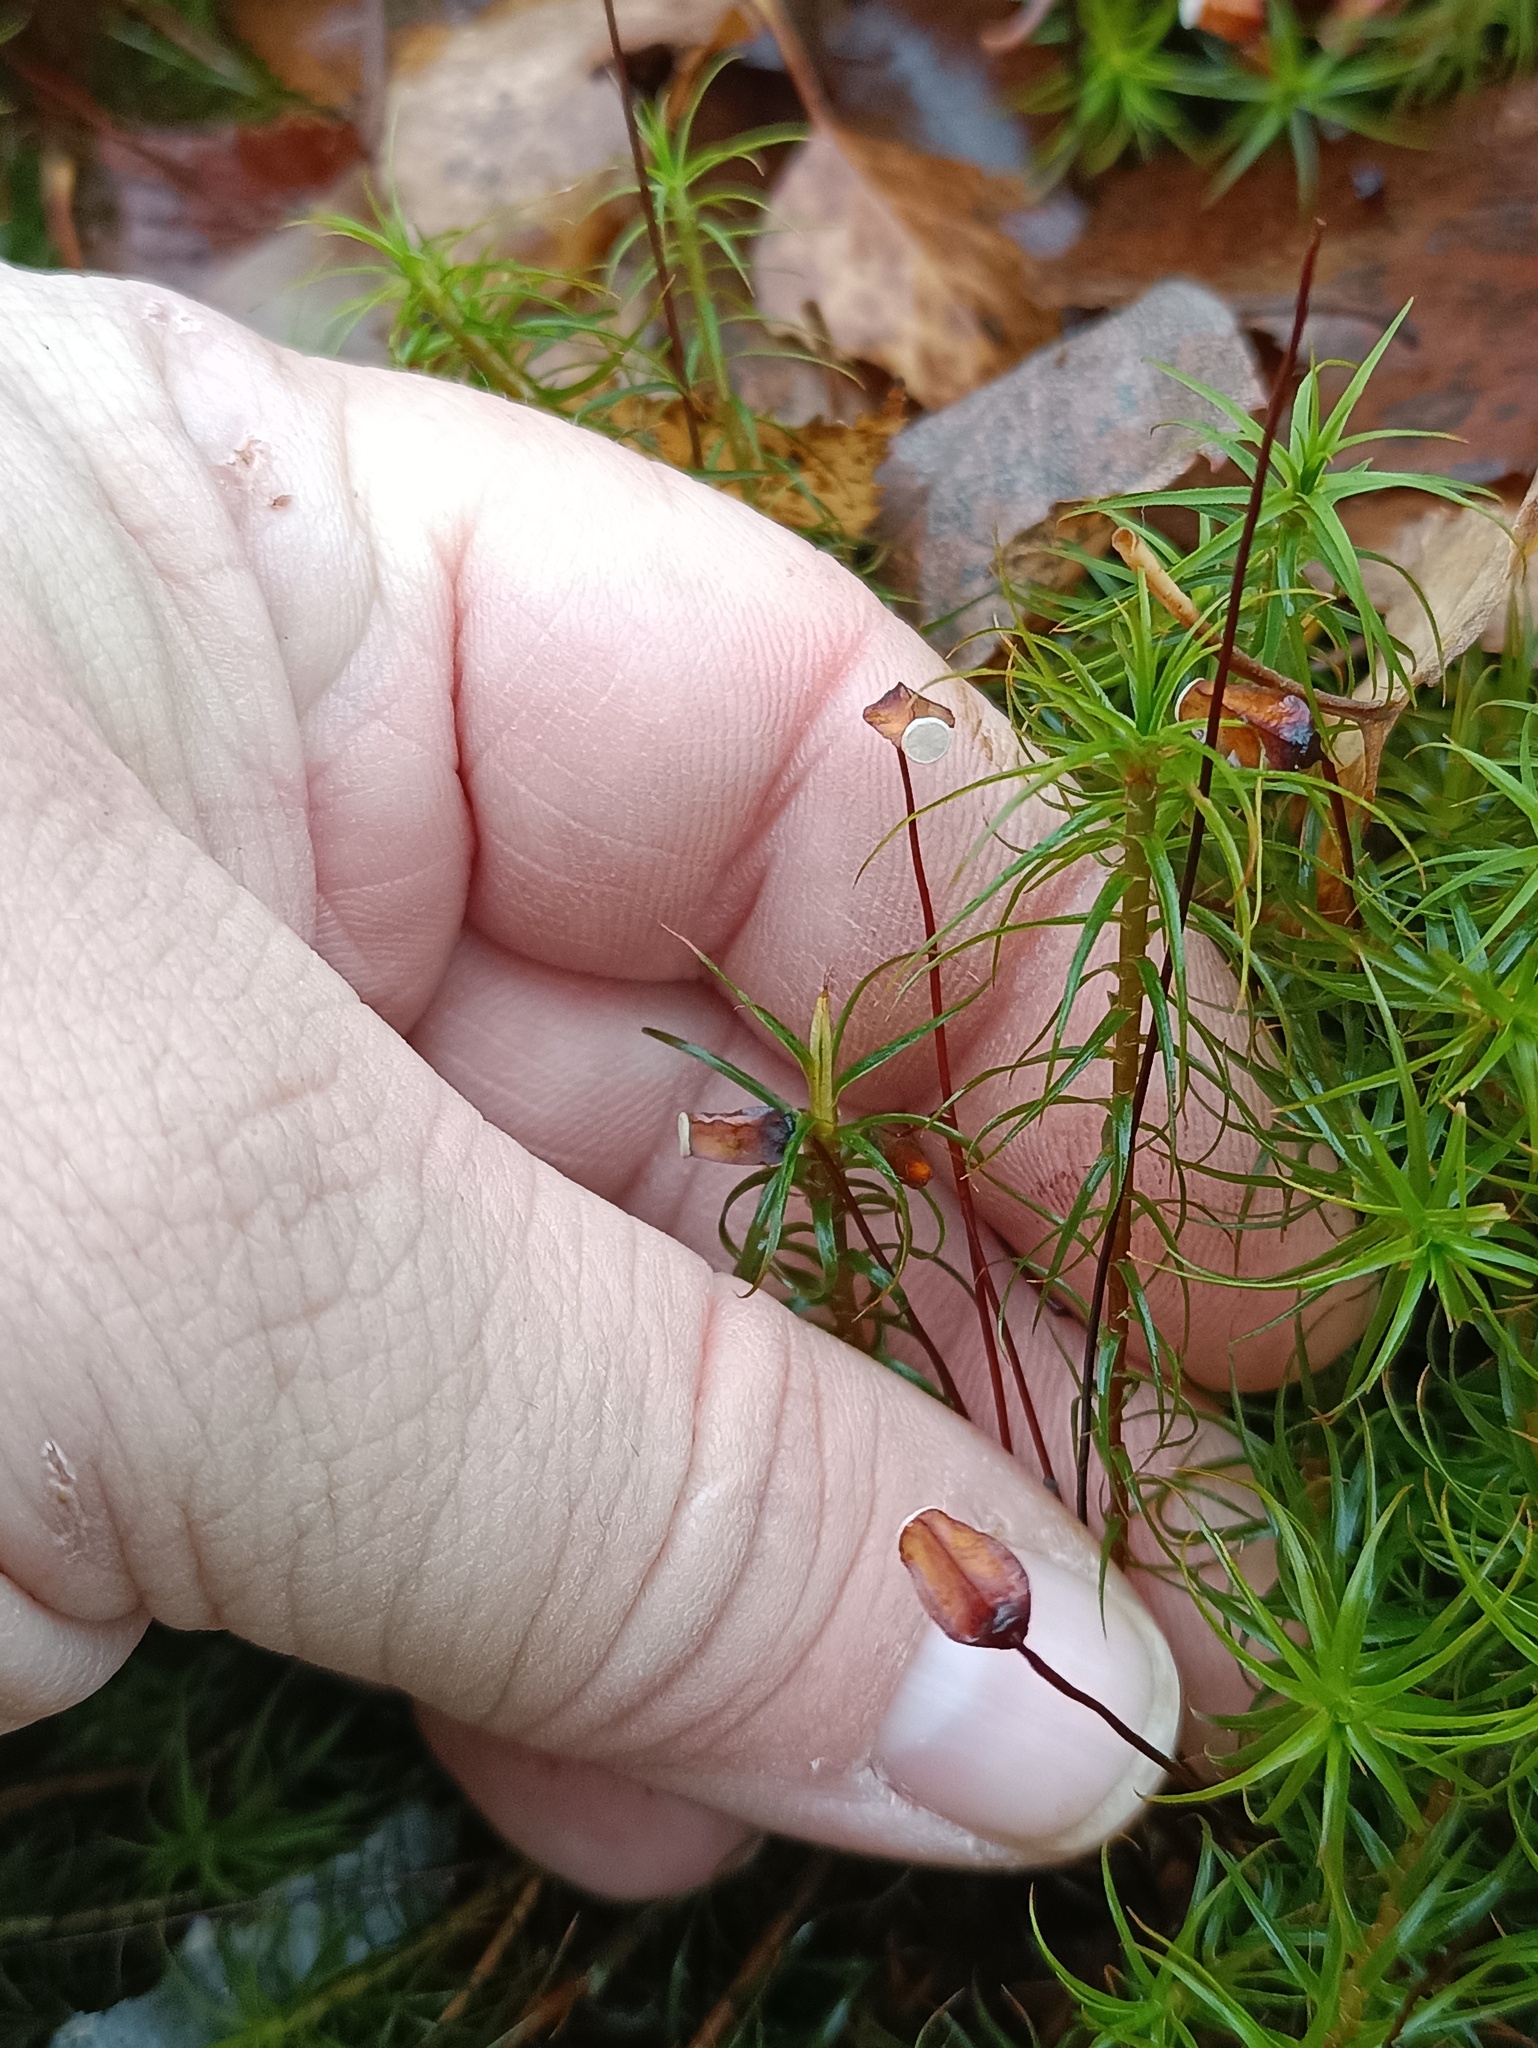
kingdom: Plantae
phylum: Bryophyta
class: Polytrichopsida
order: Polytrichales
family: Polytrichaceae
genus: Polytrichum
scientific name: Polytrichum commune
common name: Common haircap
